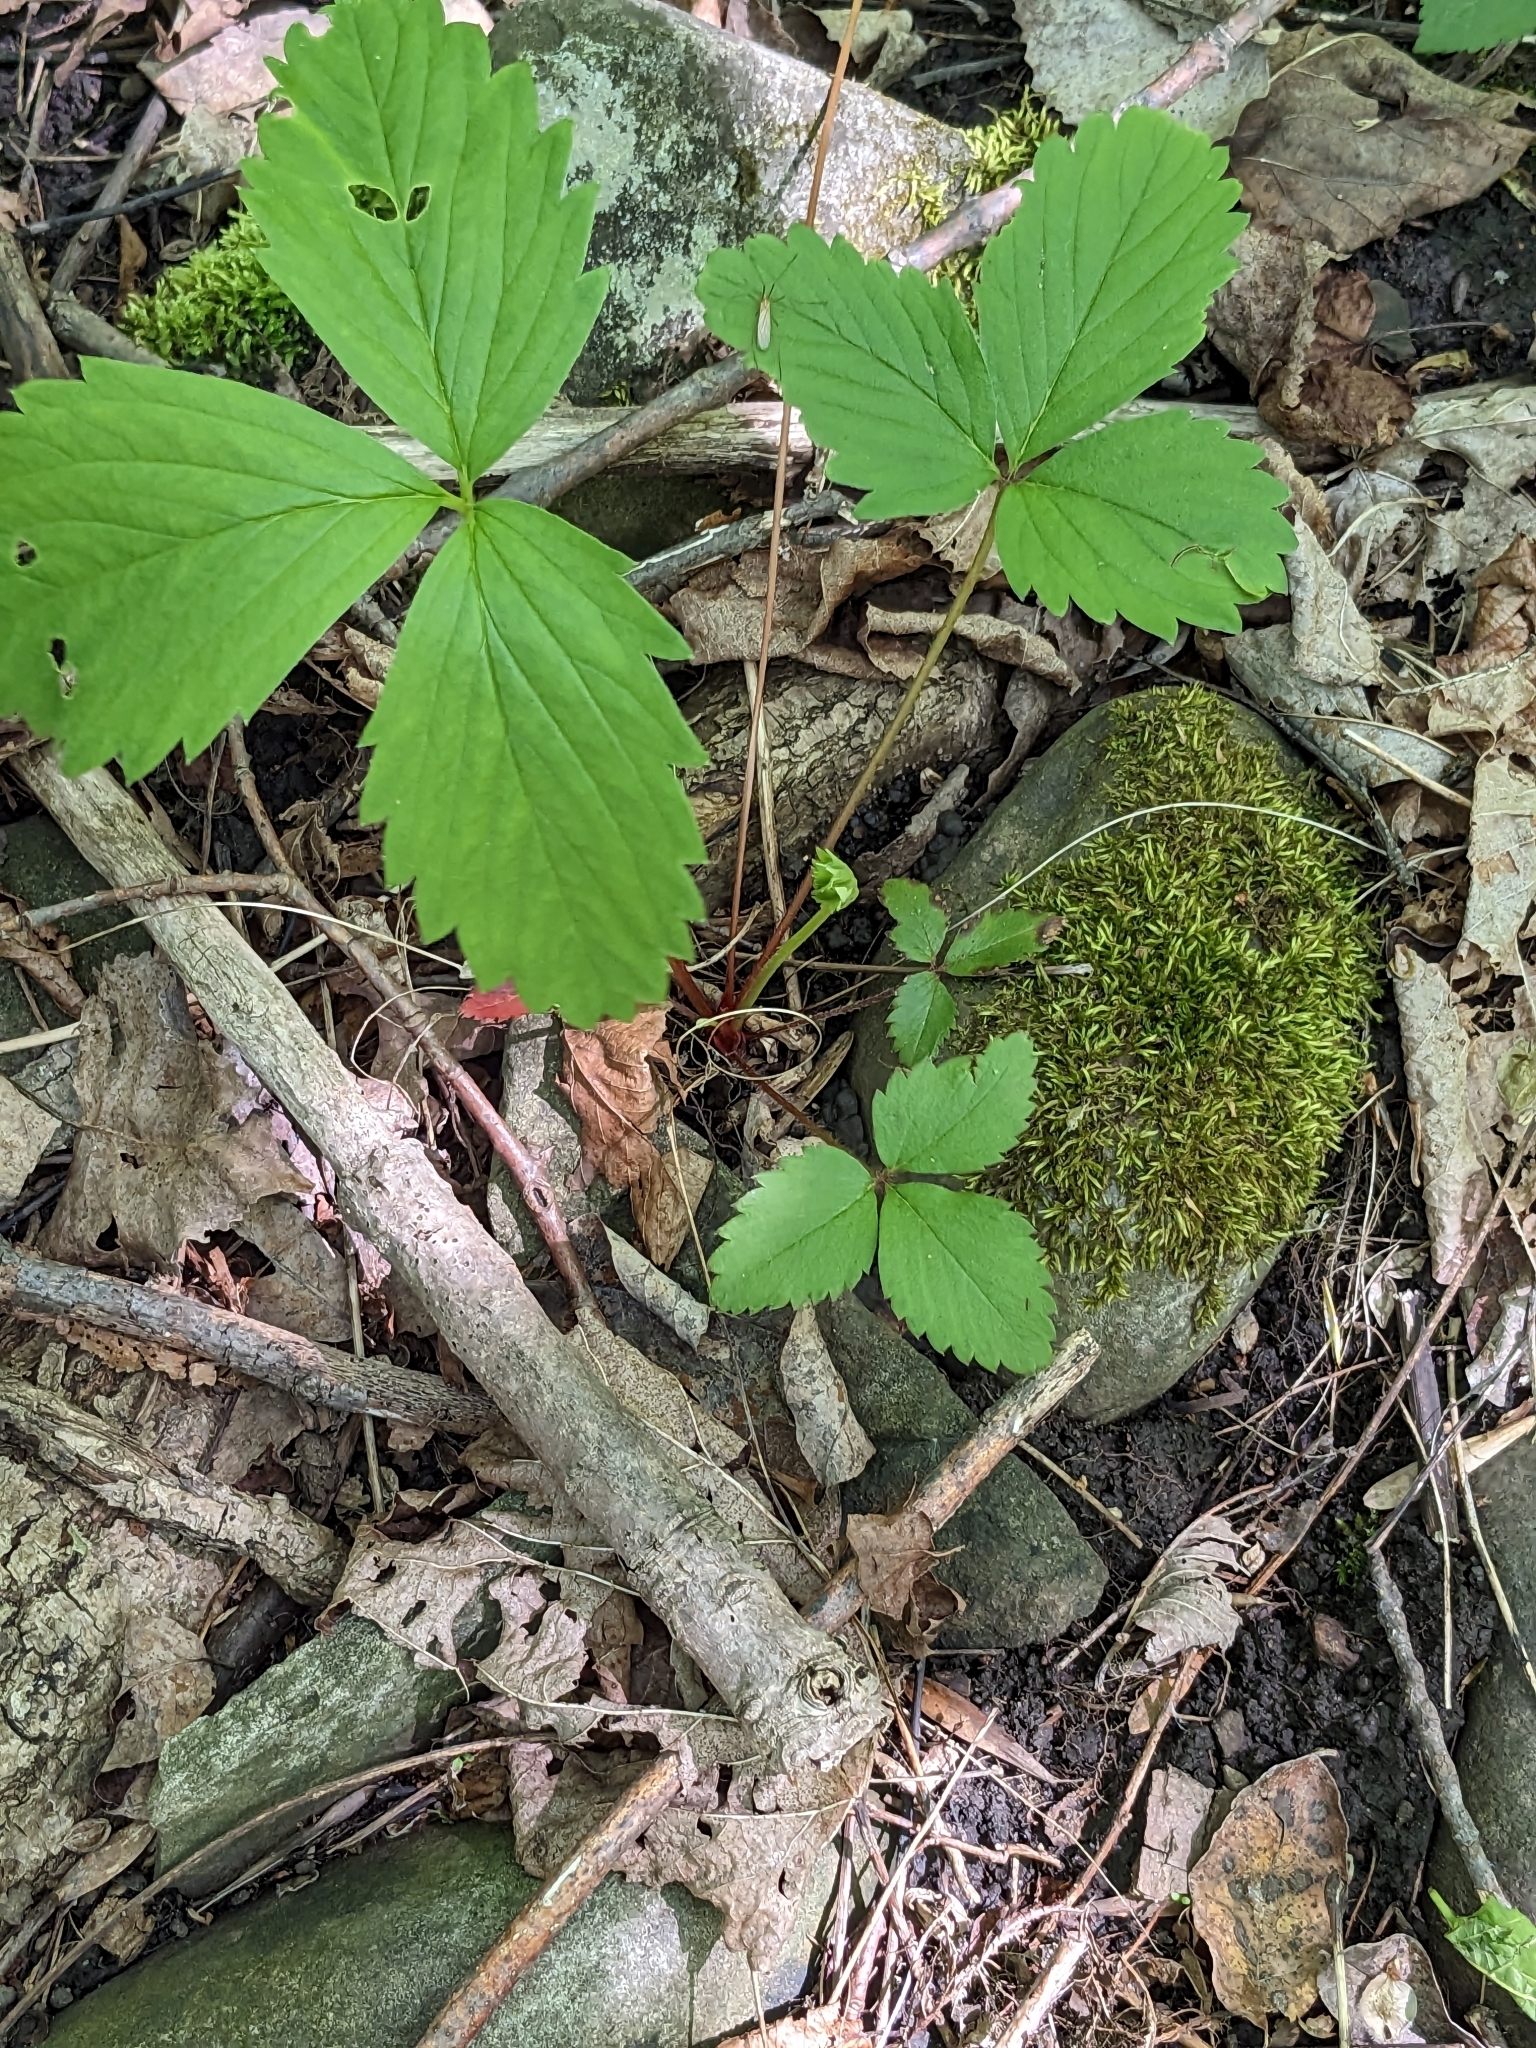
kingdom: Plantae
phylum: Tracheophyta
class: Magnoliopsida
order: Rosales
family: Rosaceae
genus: Fragaria
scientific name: Fragaria virginiana
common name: Thickleaved wild strawberry
